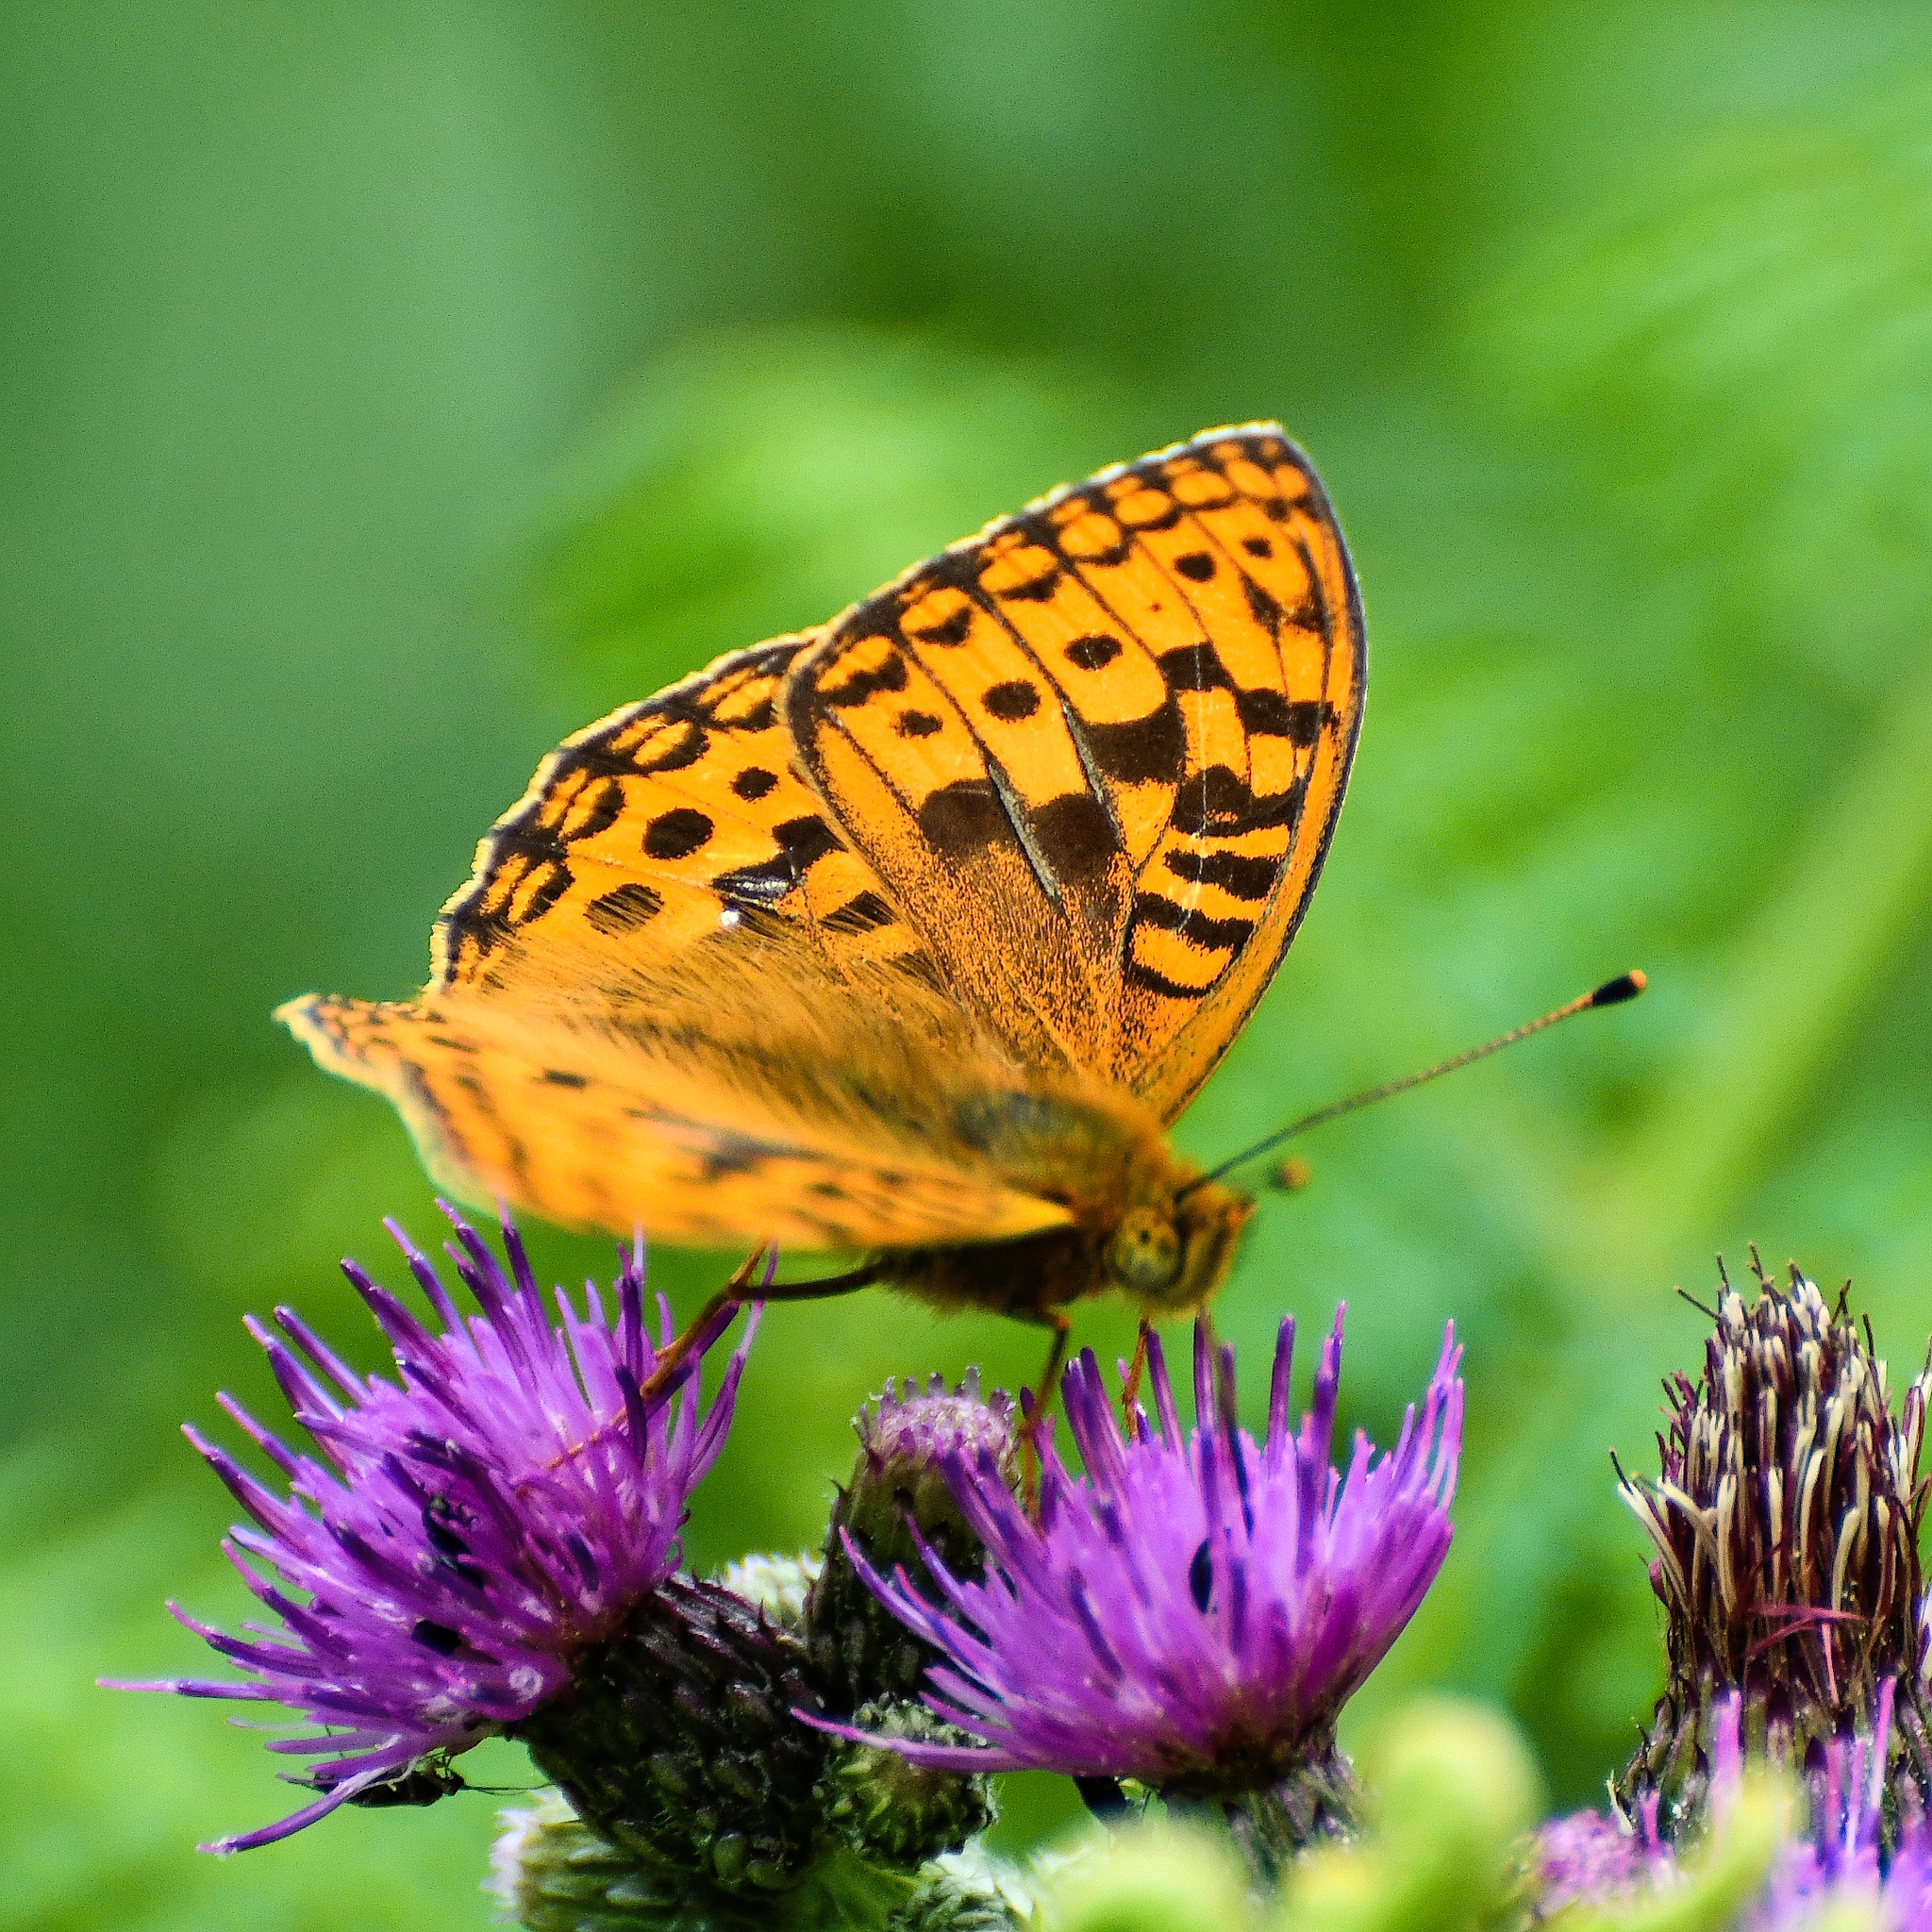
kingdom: Animalia
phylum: Arthropoda
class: Insecta
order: Lepidoptera
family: Nymphalidae
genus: Fabriciana
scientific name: Fabriciana adippe
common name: High brown fritillary
